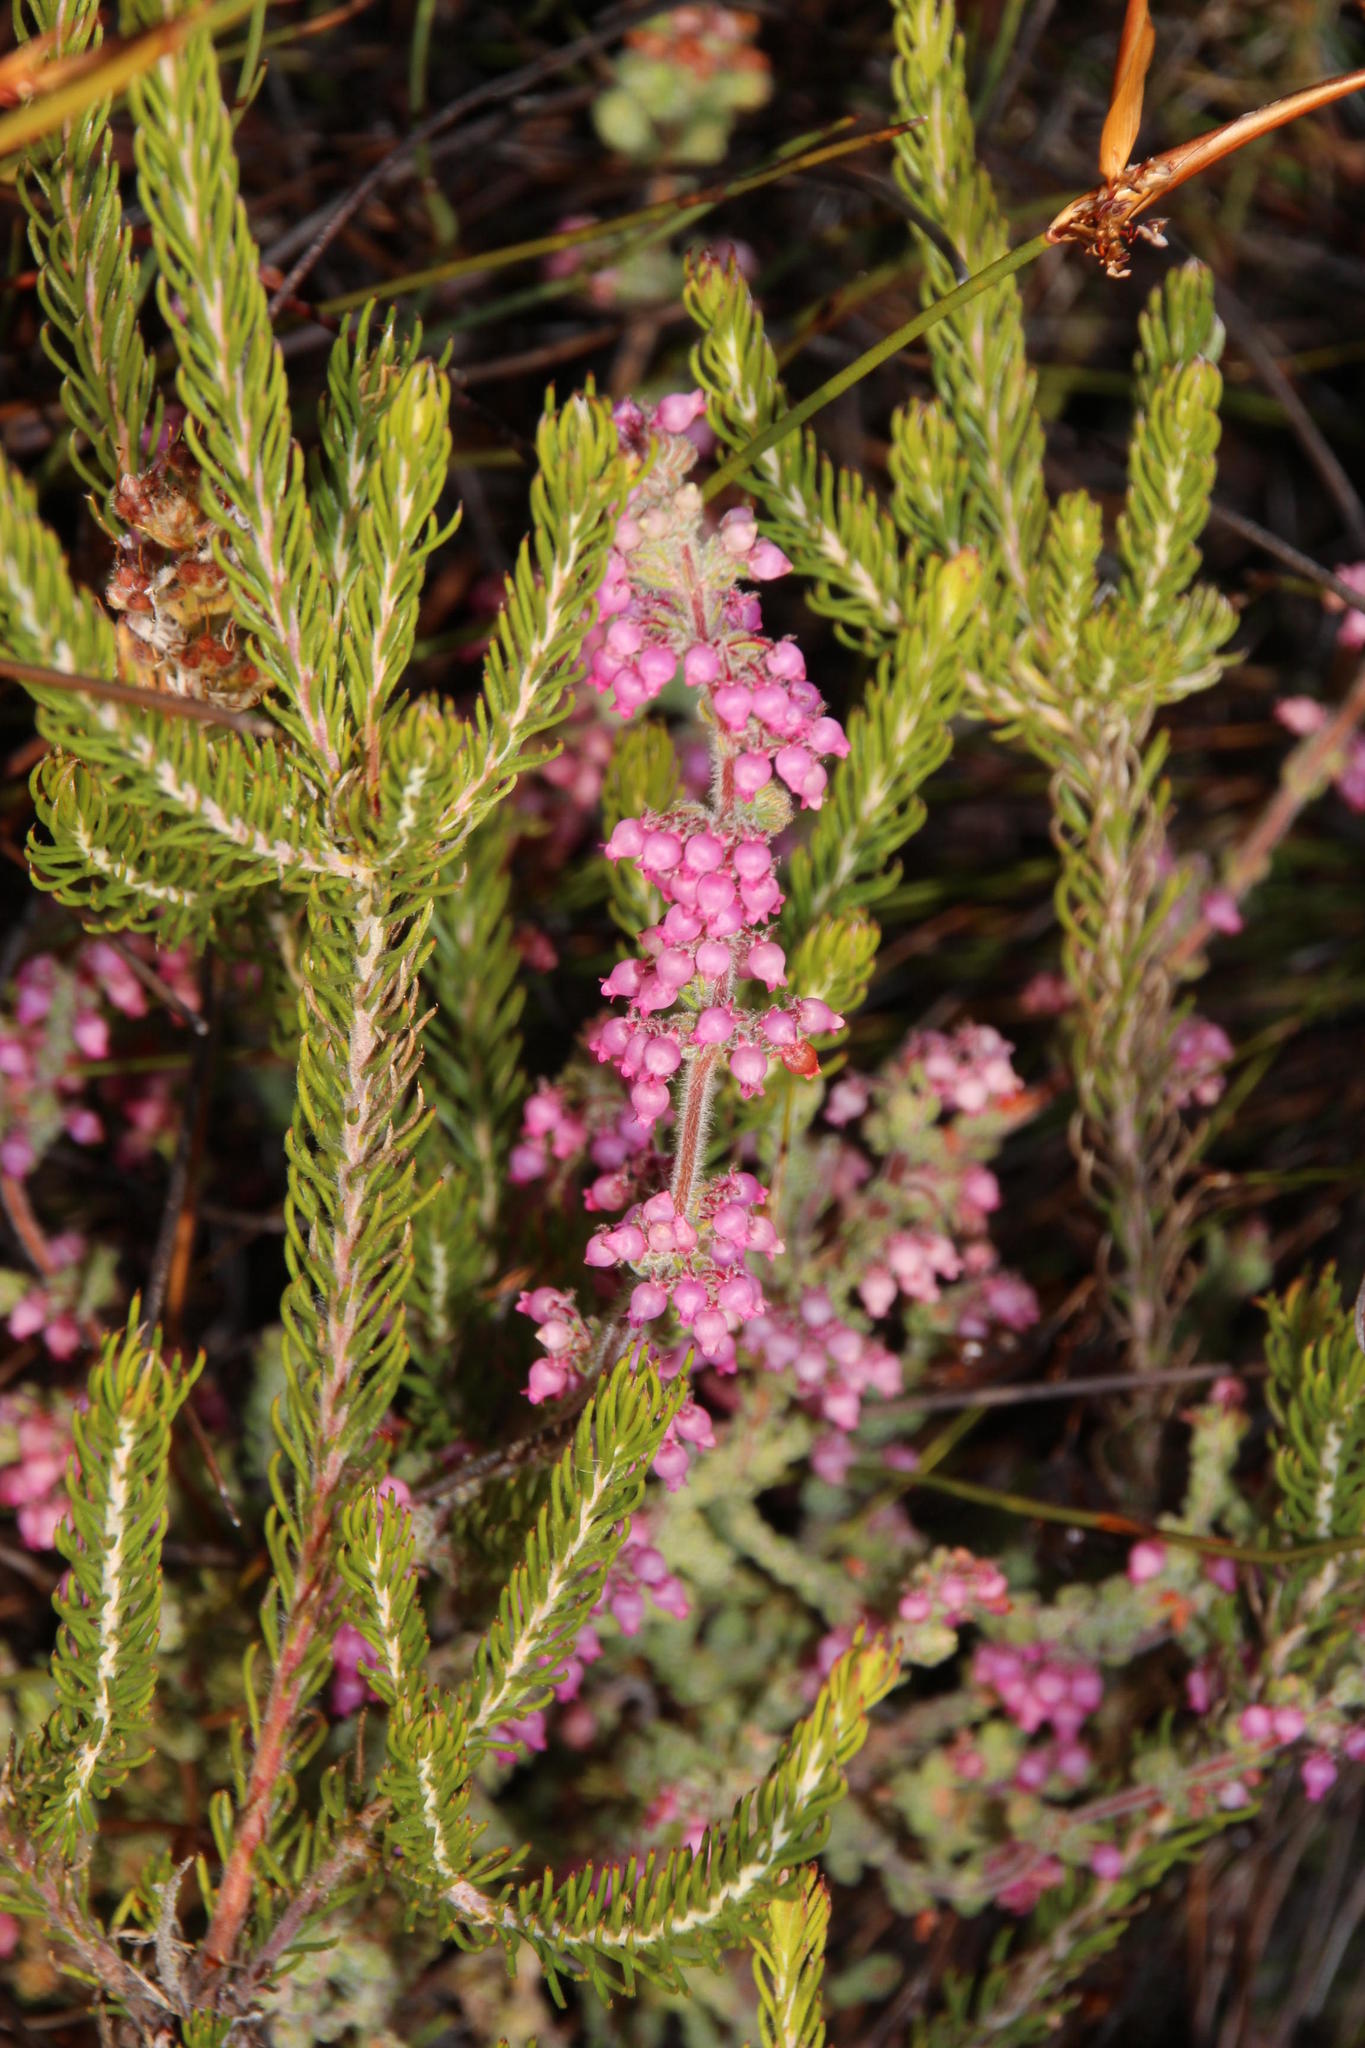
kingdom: Plantae
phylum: Tracheophyta
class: Magnoliopsida
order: Ericales
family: Ericaceae
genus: Erica
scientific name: Erica bergiana
